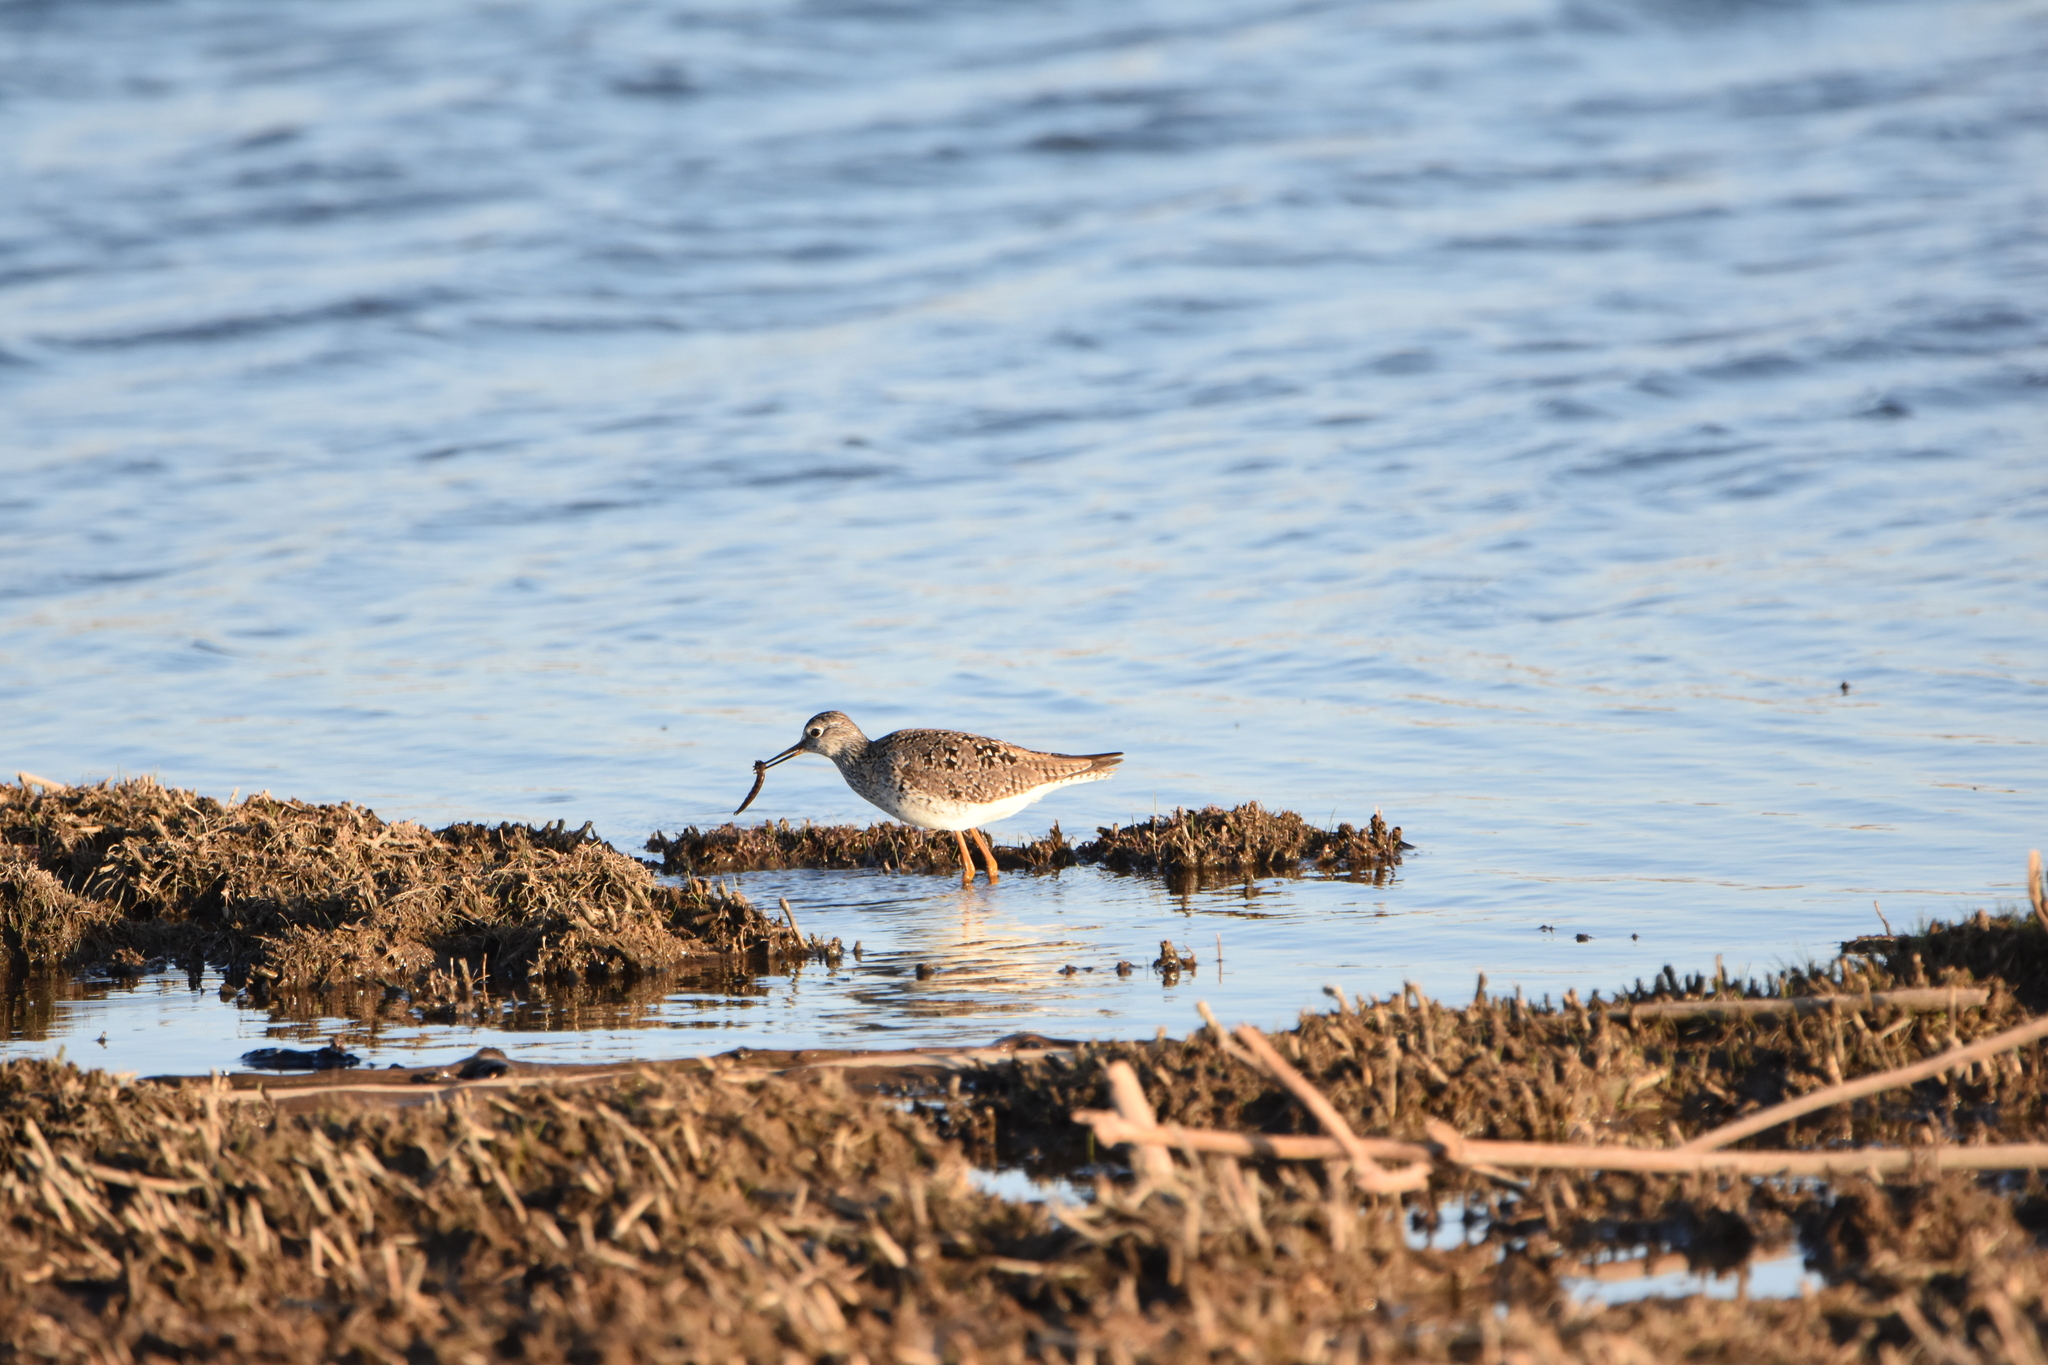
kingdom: Animalia
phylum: Chordata
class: Aves
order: Charadriiformes
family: Scolopacidae
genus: Tringa
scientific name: Tringa flavipes
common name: Lesser yellowlegs
